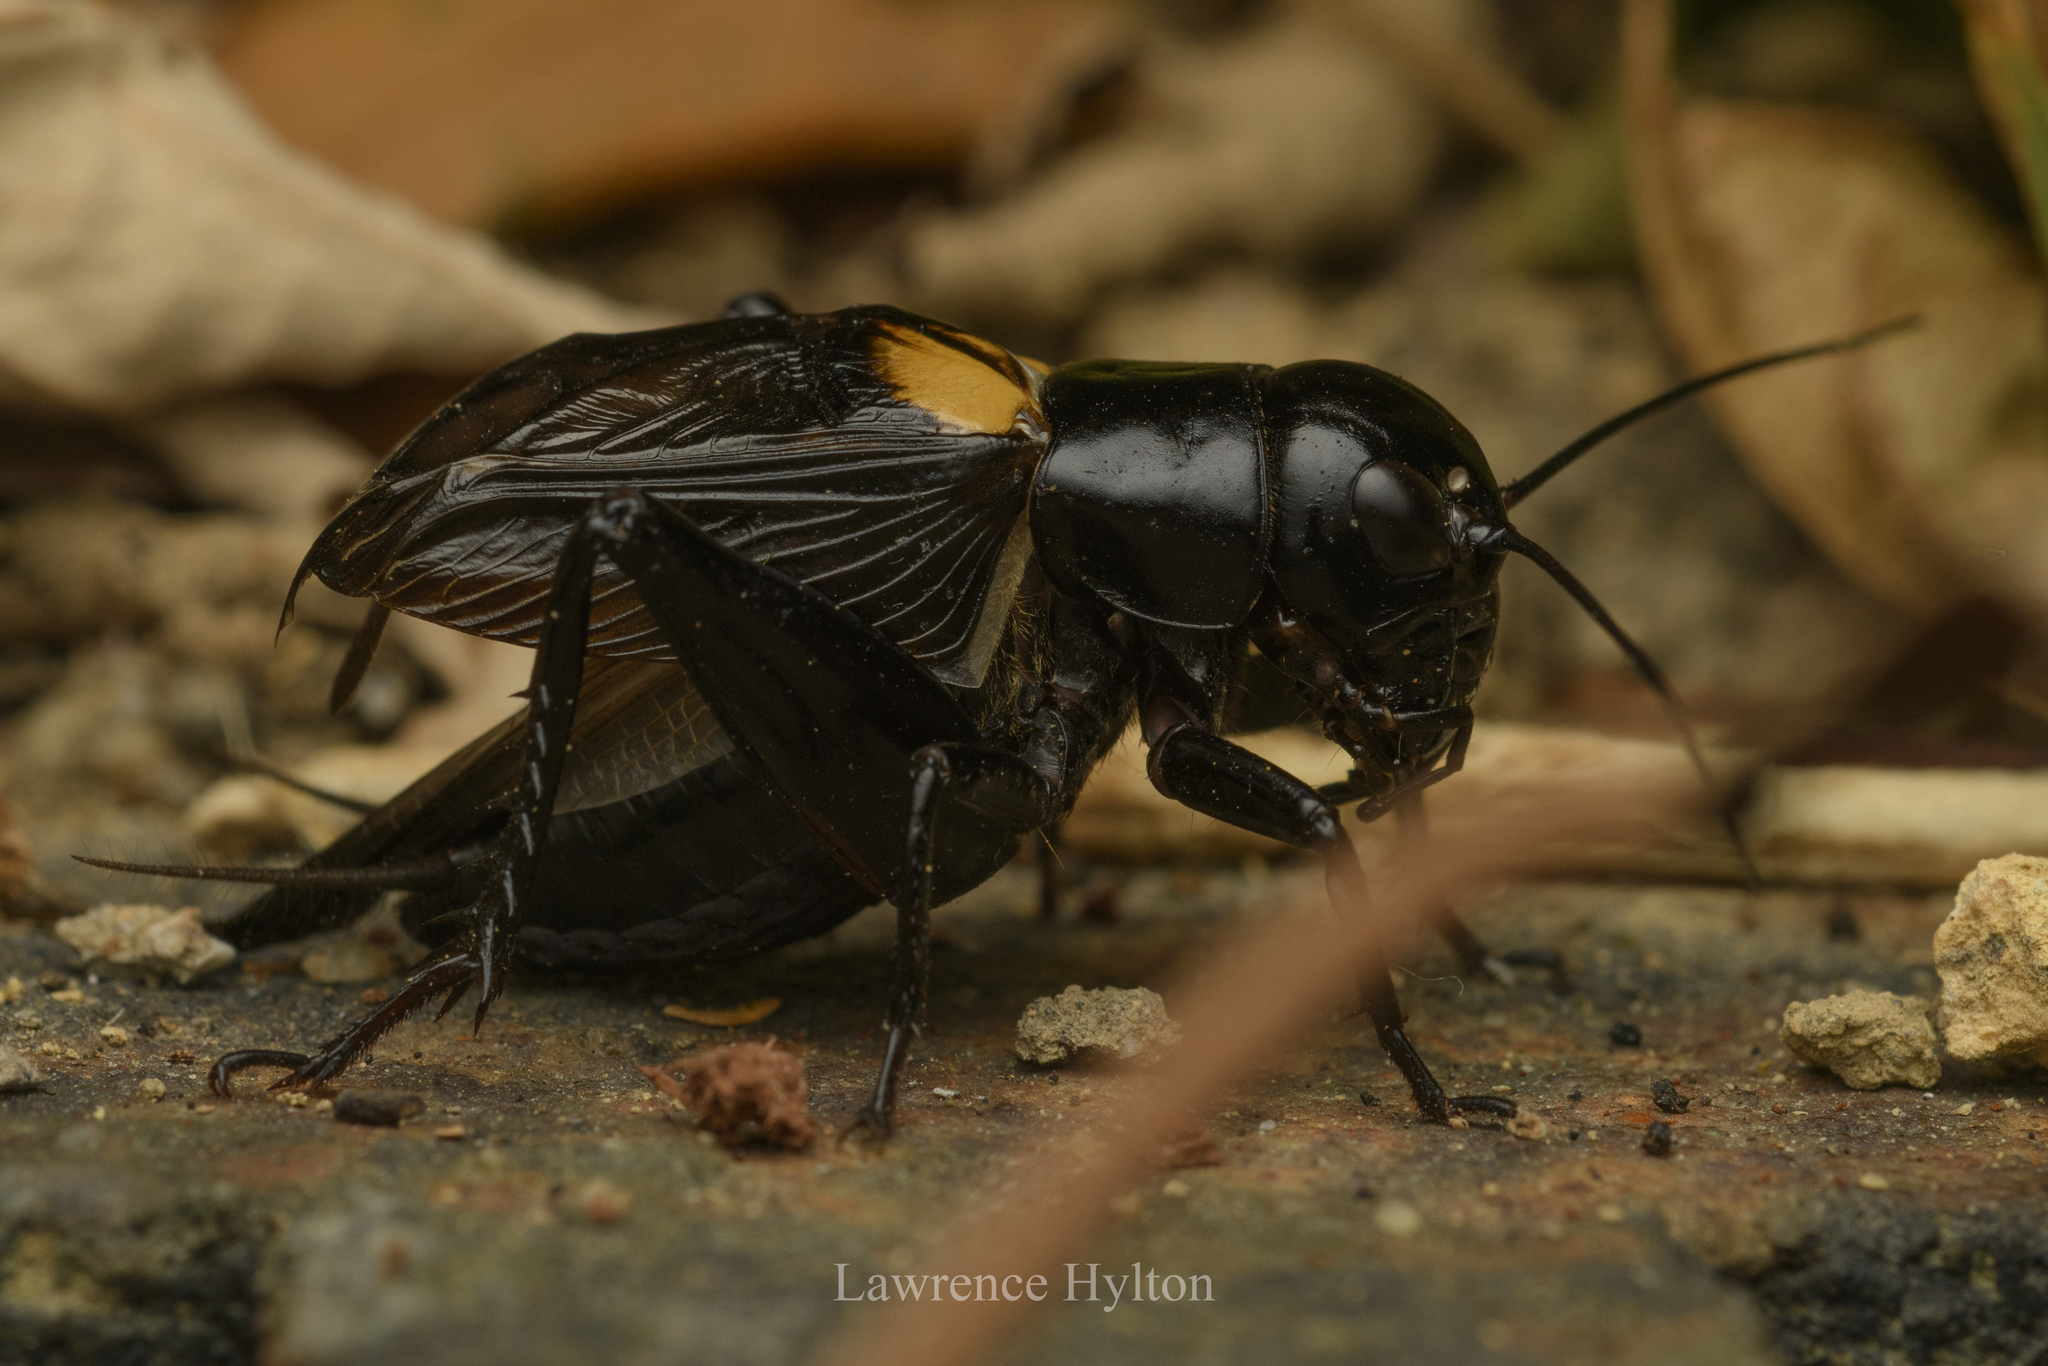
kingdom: Animalia
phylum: Arthropoda
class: Insecta
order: Orthoptera
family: Gryllidae
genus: Gryllus
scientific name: Gryllus bimaculatus
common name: Two-spotted cricket
